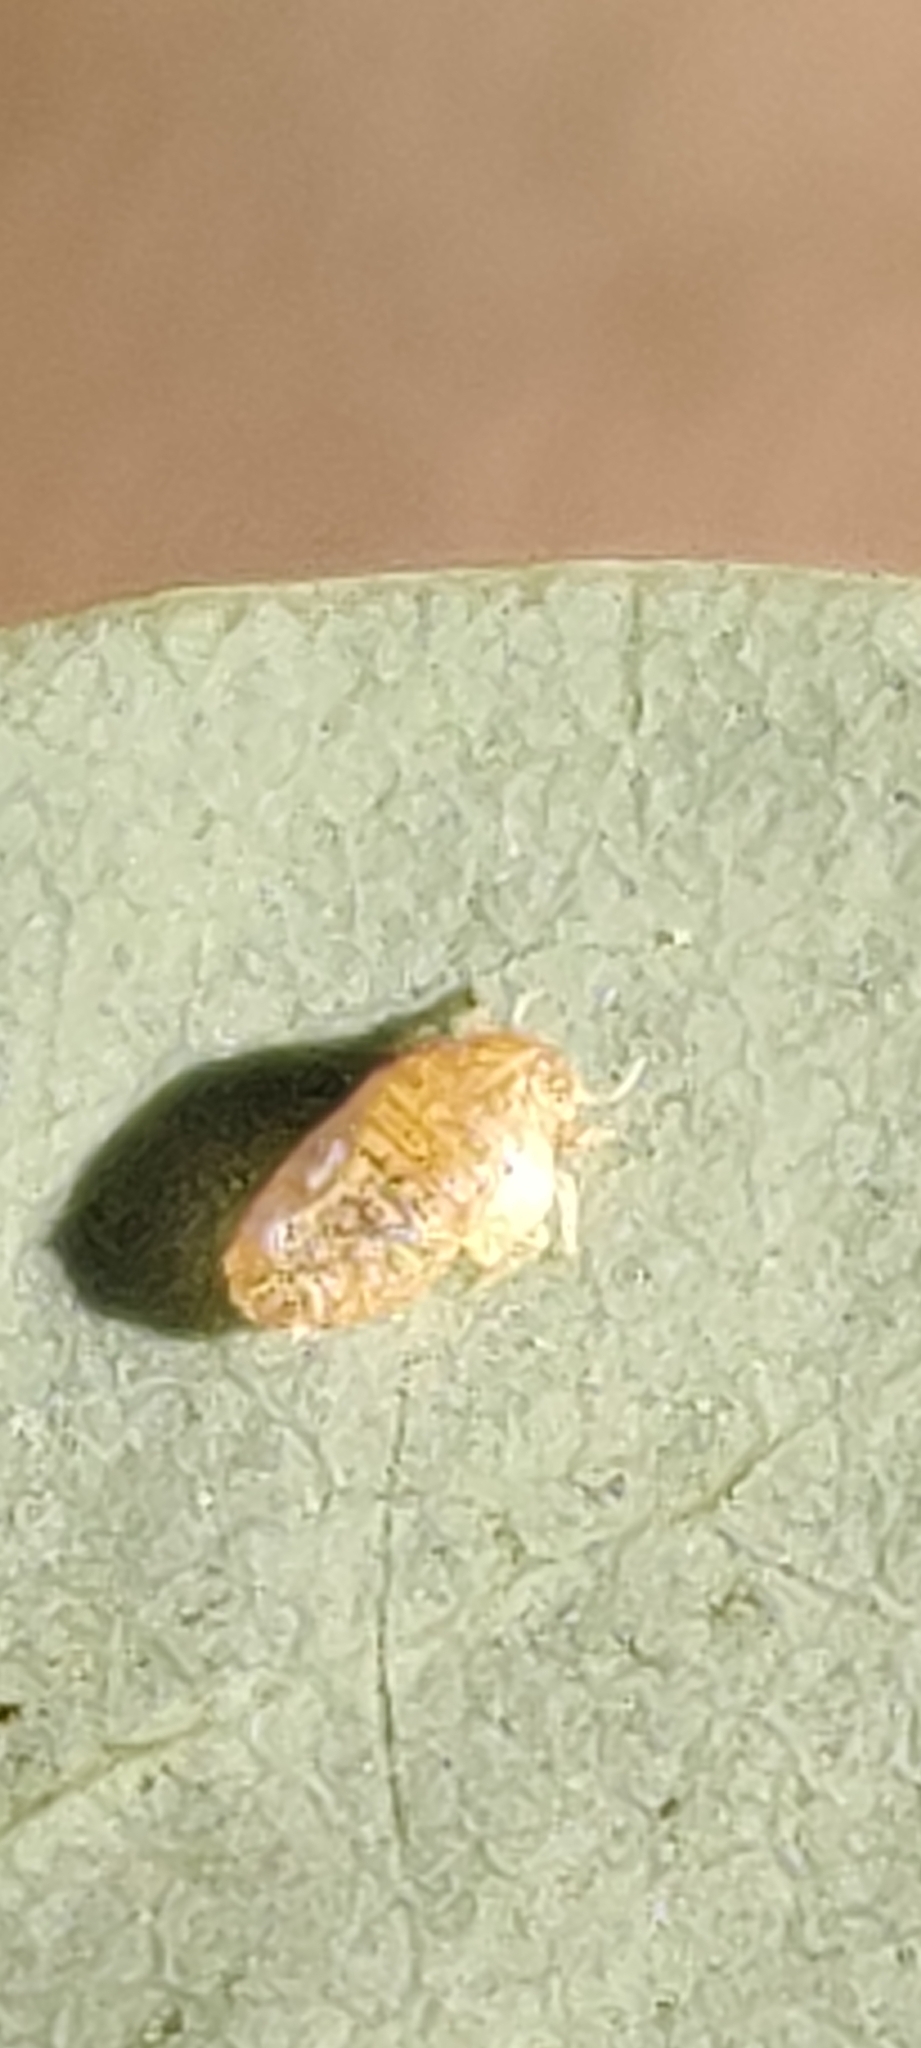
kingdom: Animalia
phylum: Arthropoda
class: Insecta
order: Hemiptera
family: Aphididae
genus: Tamalia
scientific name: Tamalia coweni
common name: Manzanita leafgall aphid
